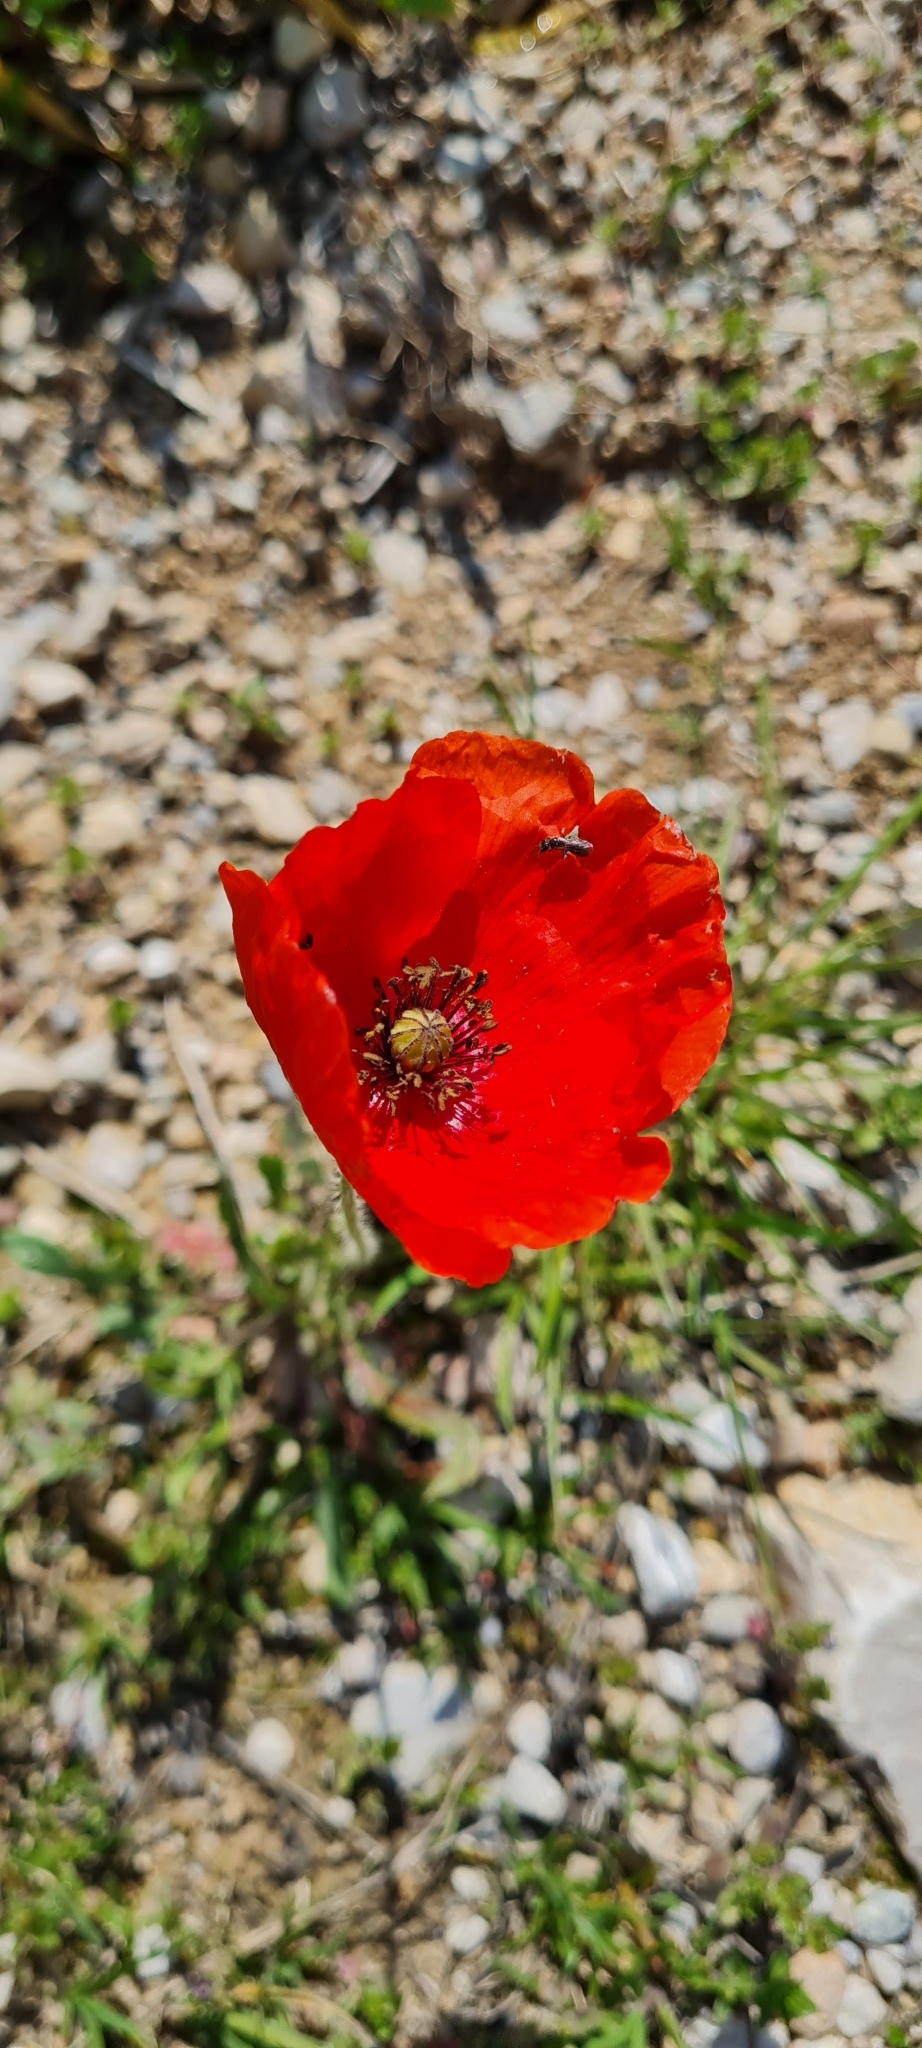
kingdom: Plantae
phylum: Tracheophyta
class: Magnoliopsida
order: Ranunculales
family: Papaveraceae
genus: Papaver
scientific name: Papaver rhoeas
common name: Corn poppy
